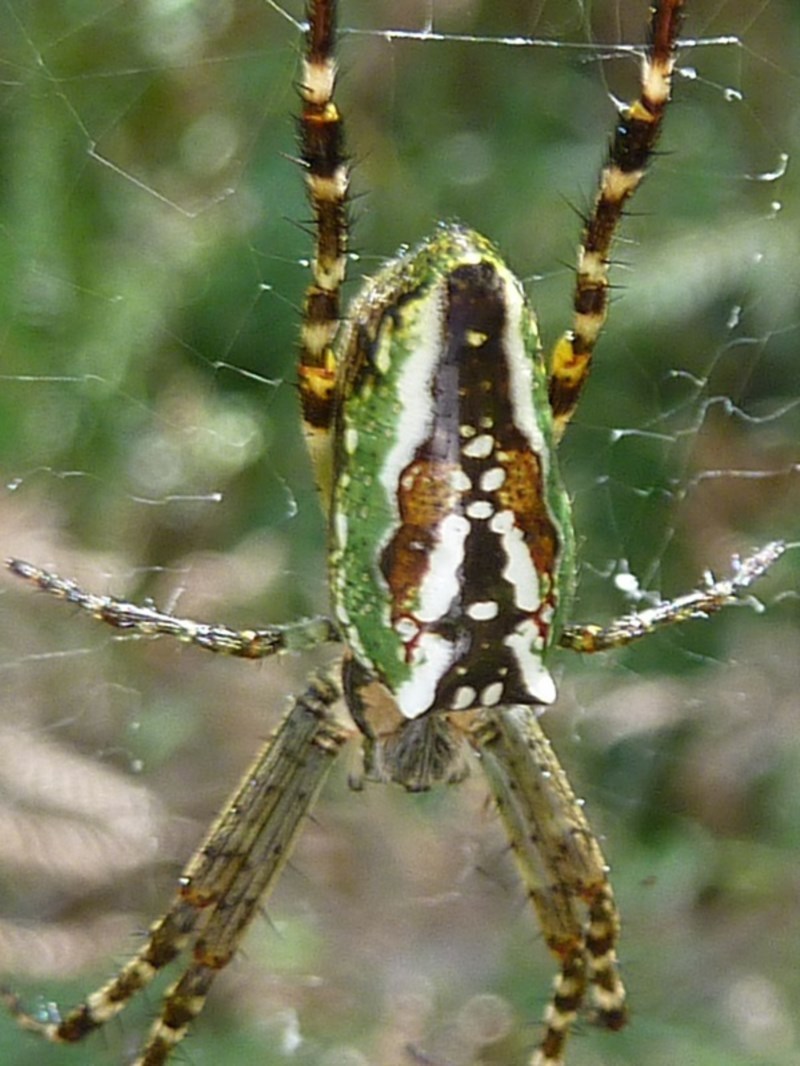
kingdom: Animalia
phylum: Arthropoda
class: Arachnida
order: Araneae
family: Araneidae
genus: Plebs
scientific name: Plebs bradleyi
